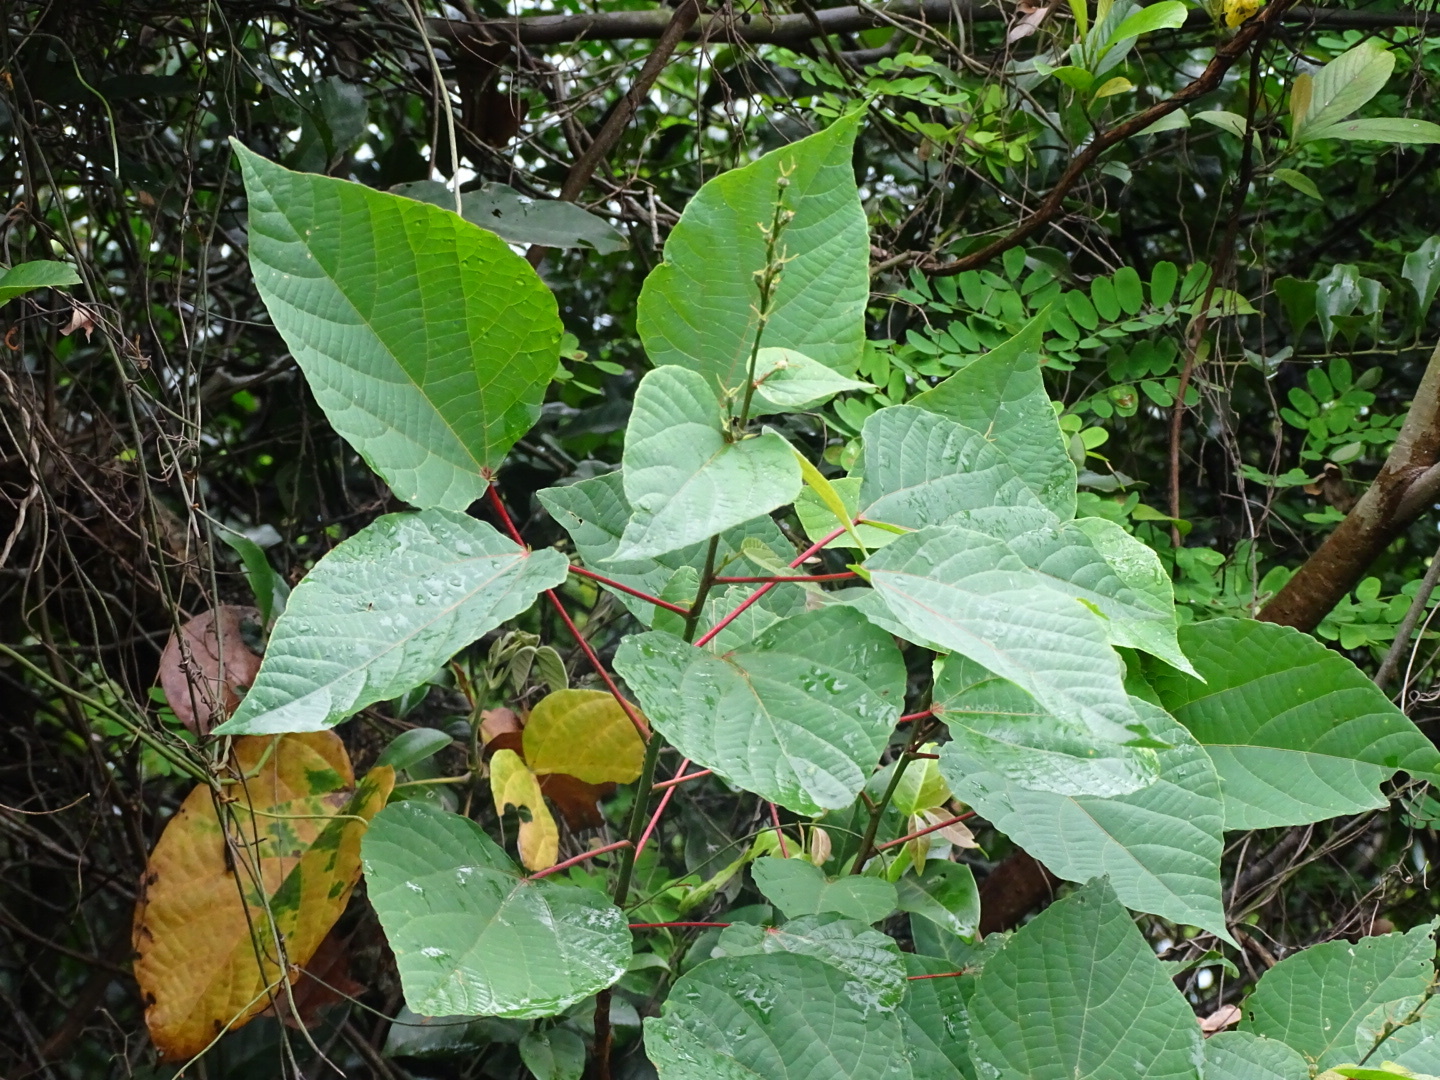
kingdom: Plantae
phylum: Tracheophyta
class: Magnoliopsida
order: Malpighiales
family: Euphorbiaceae
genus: Alchornea
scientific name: Alchornea trewioides
